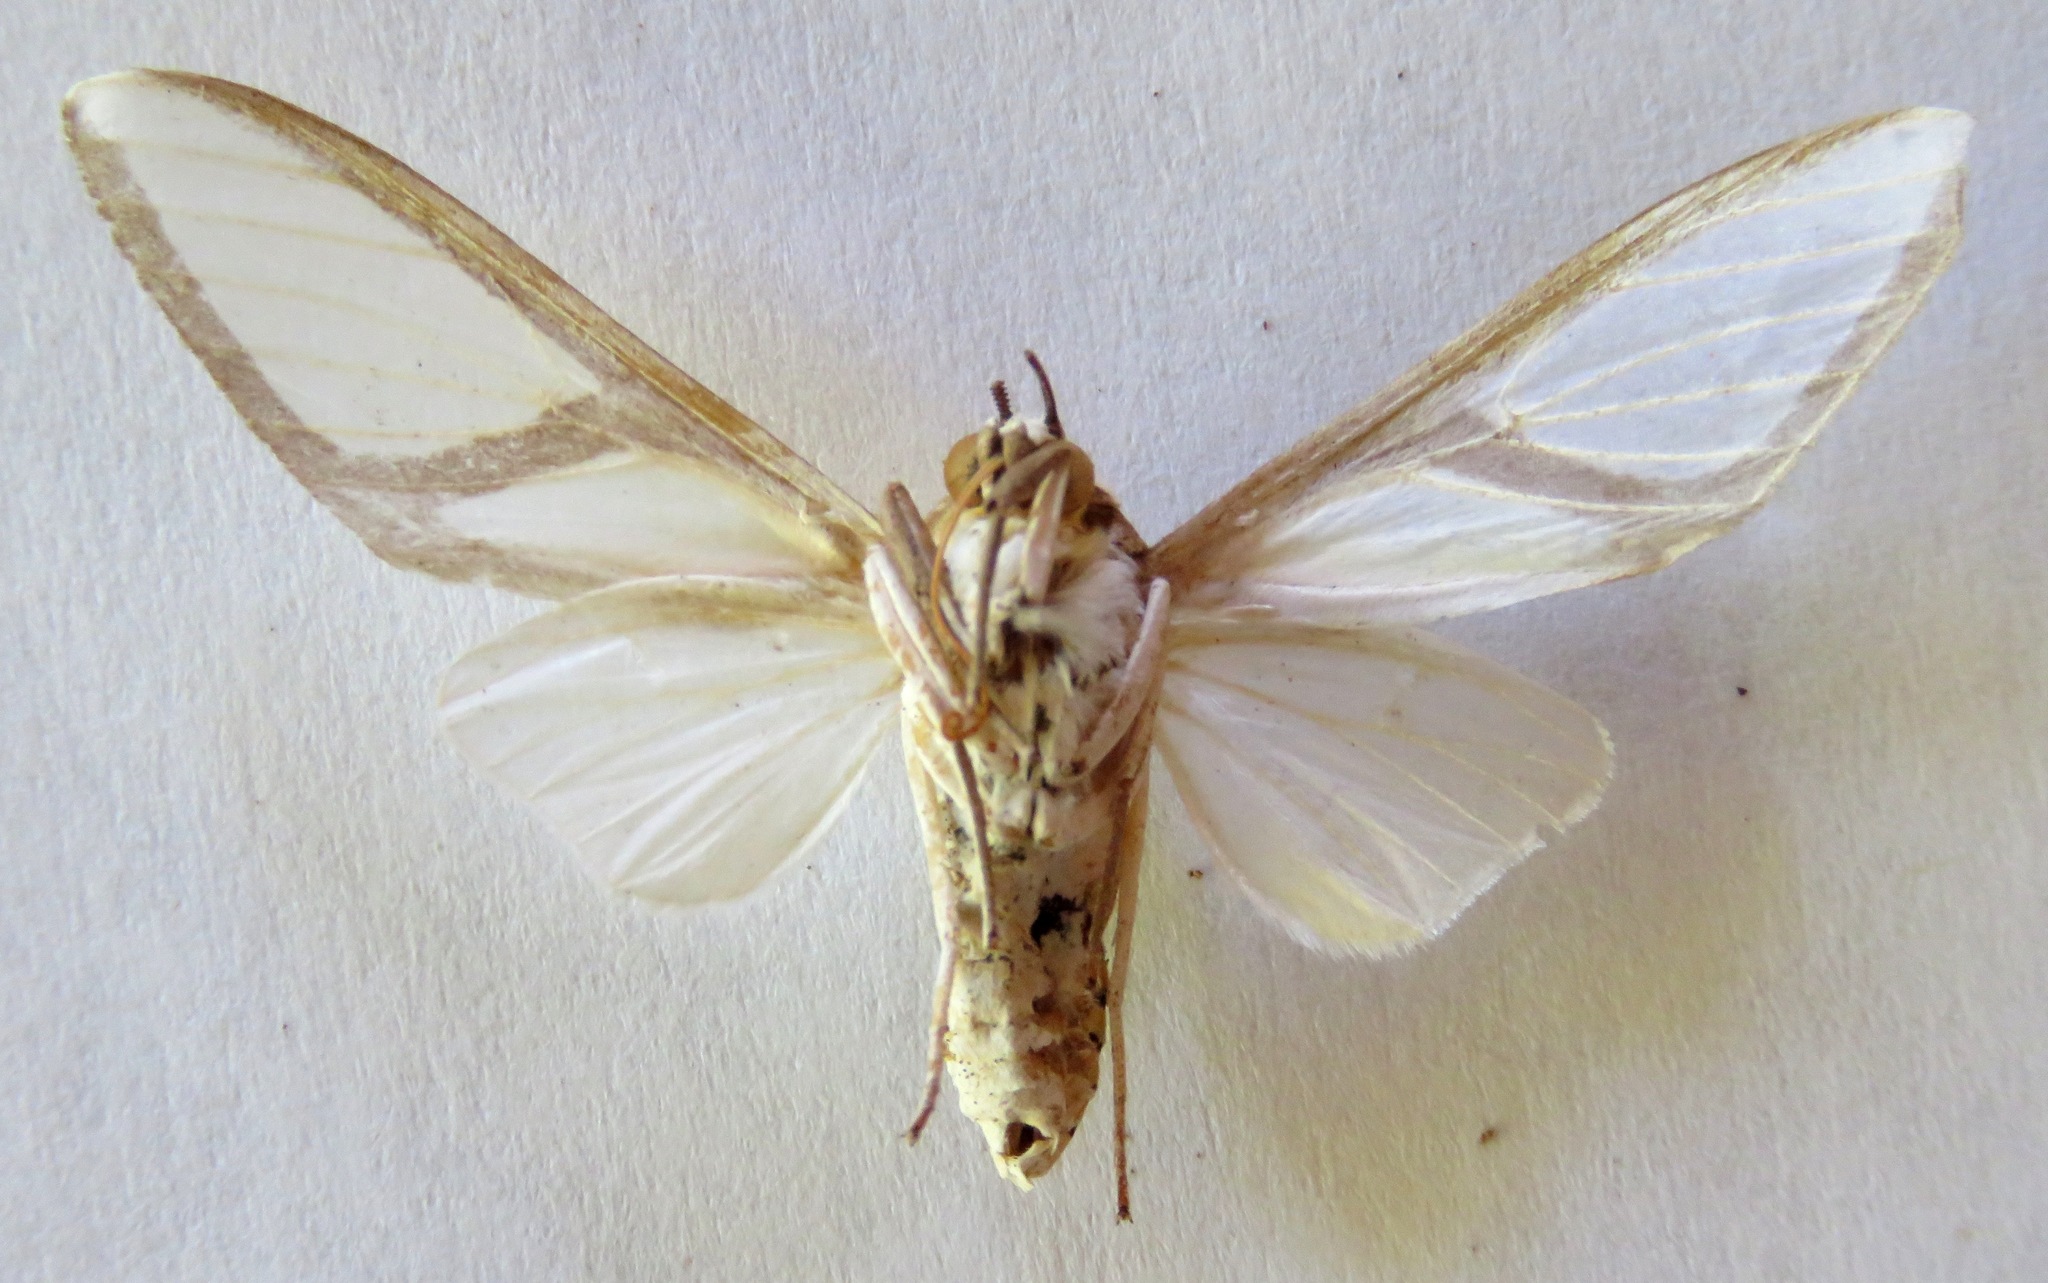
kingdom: Animalia
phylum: Arthropoda
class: Insecta
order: Lepidoptera
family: Erebidae
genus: Robinsonia
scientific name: Robinsonia dewitzi
